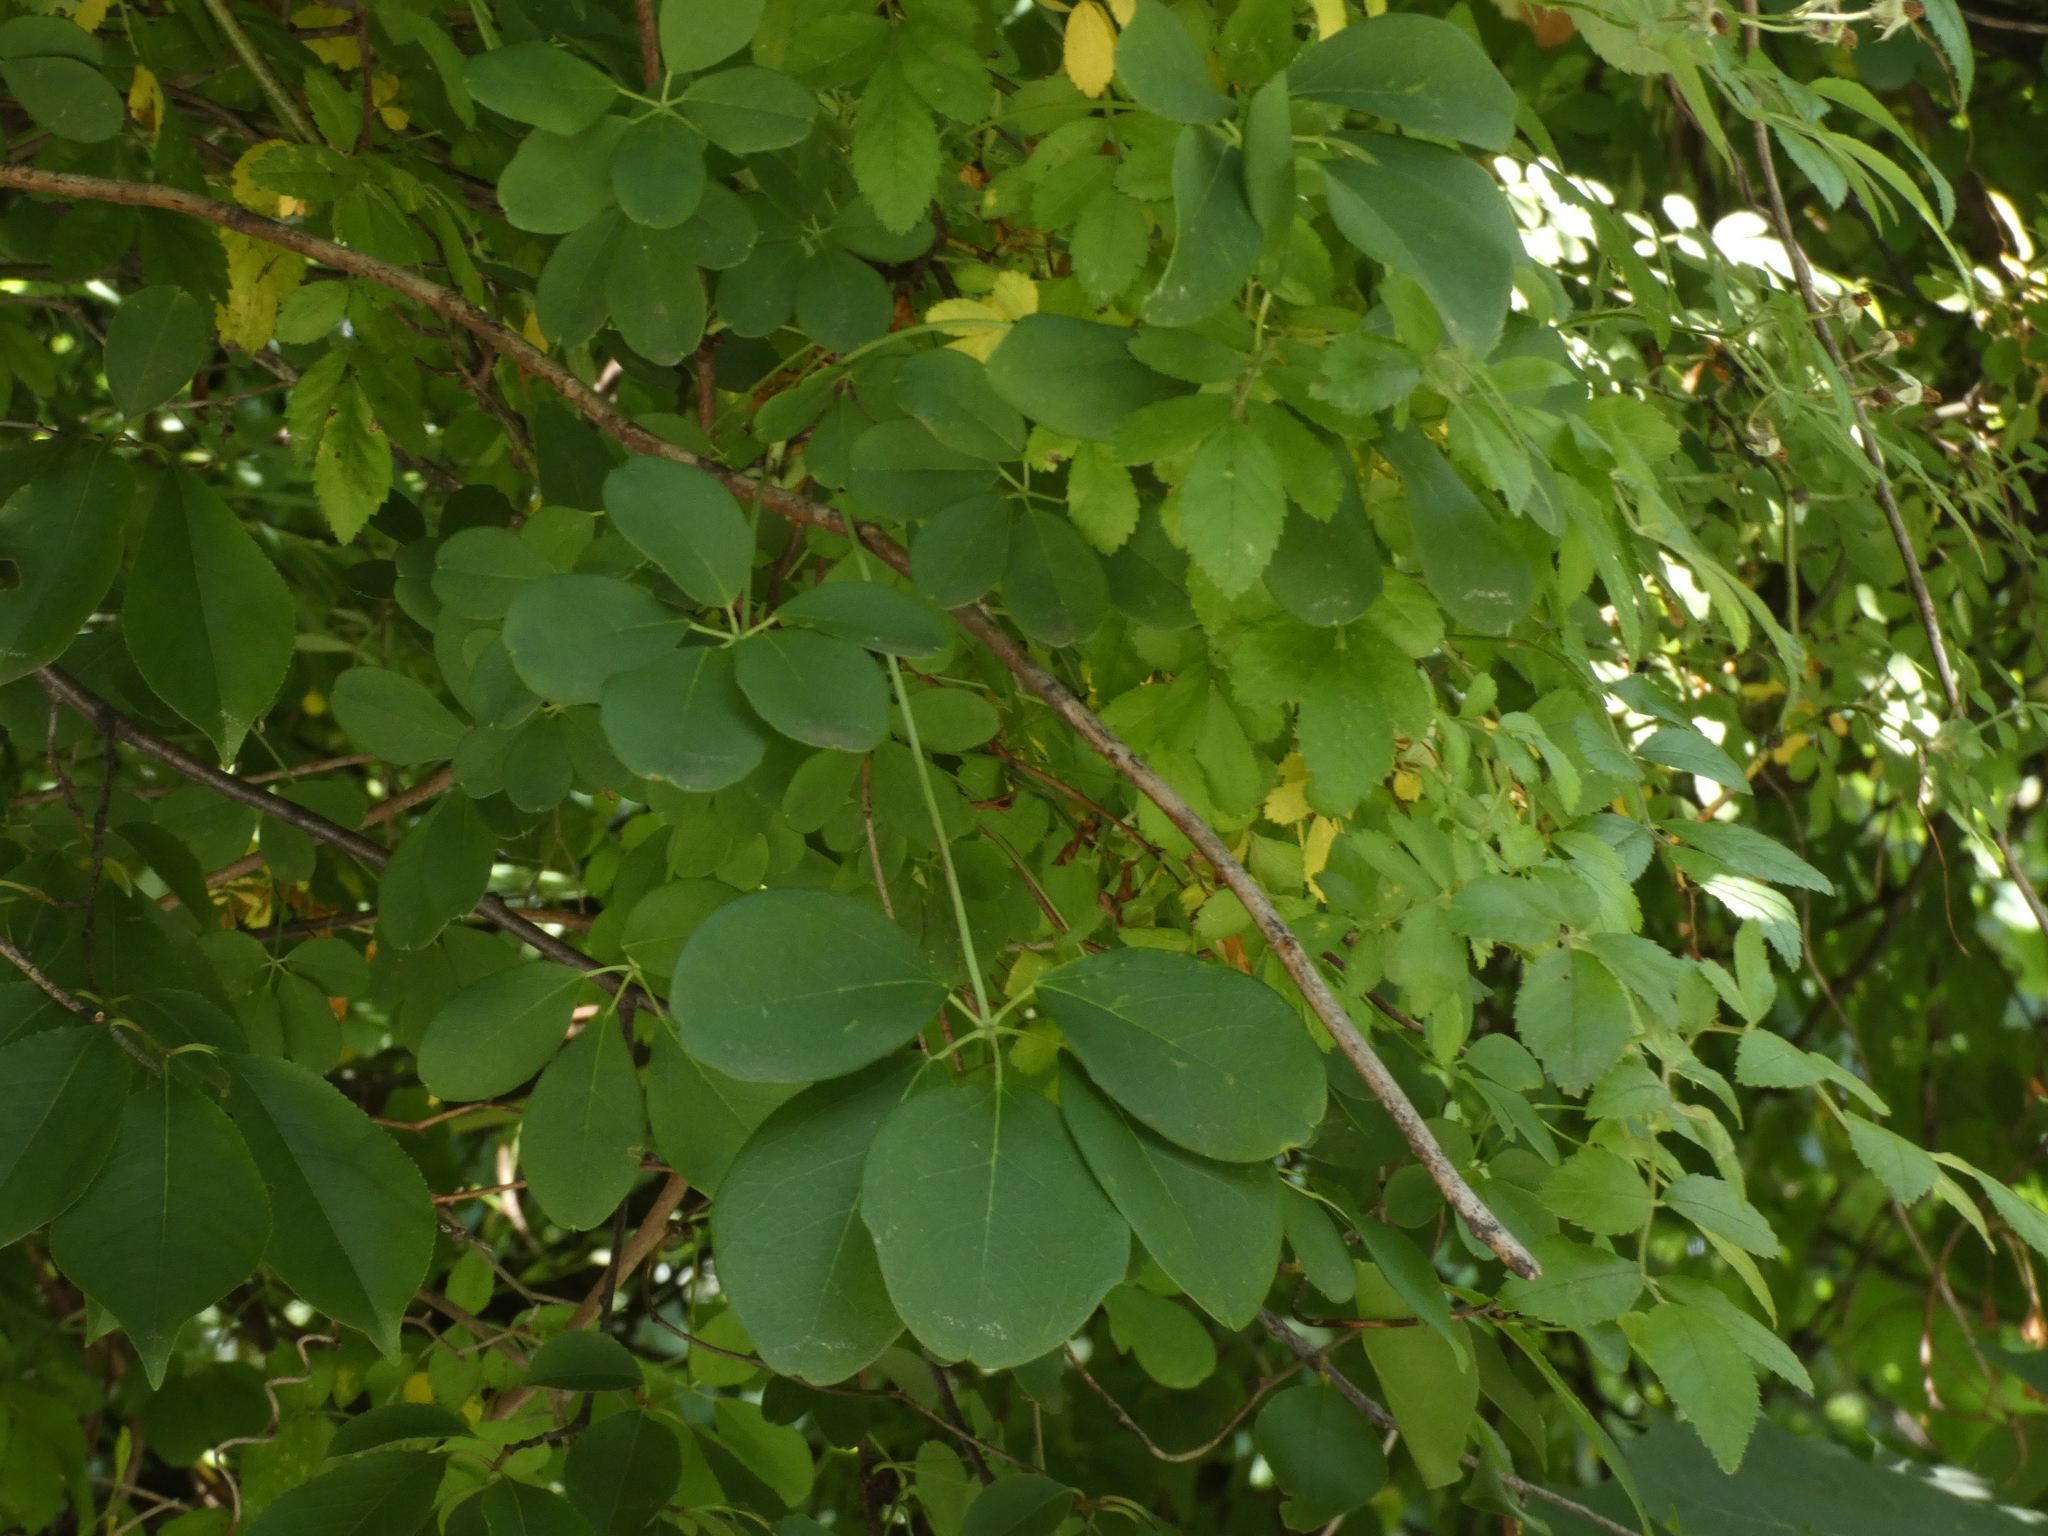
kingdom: Plantae
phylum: Tracheophyta
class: Magnoliopsida
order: Ranunculales
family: Lardizabalaceae
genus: Akebia
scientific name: Akebia quinata
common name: Five-leaf akebia
